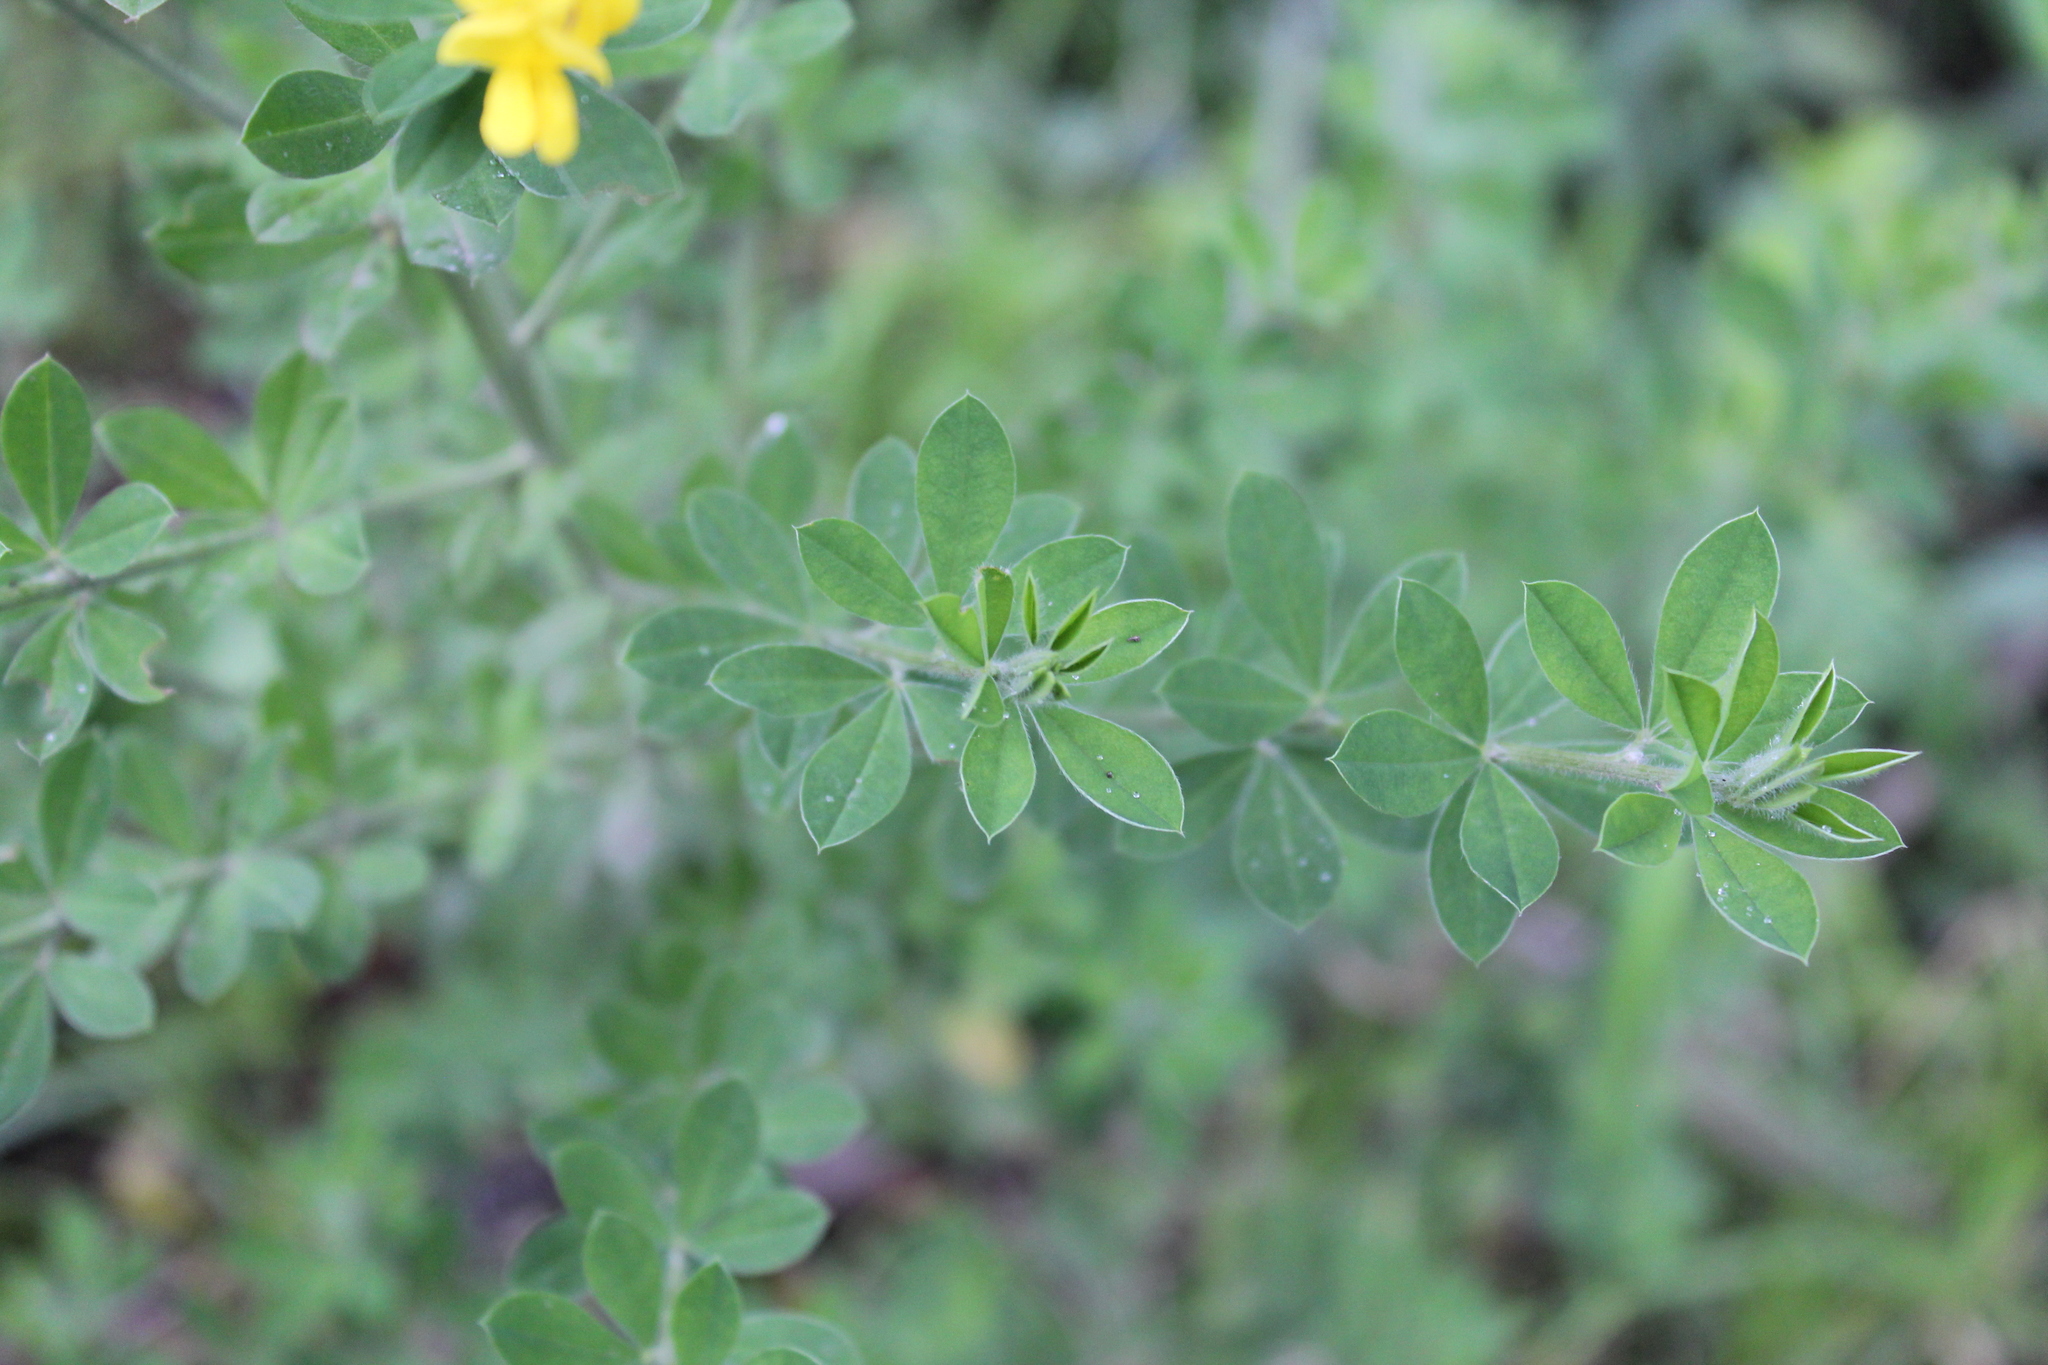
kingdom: Plantae
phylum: Tracheophyta
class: Magnoliopsida
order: Fabales
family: Fabaceae
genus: Genista
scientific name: Genista monspessulana
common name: Montpellier broom
